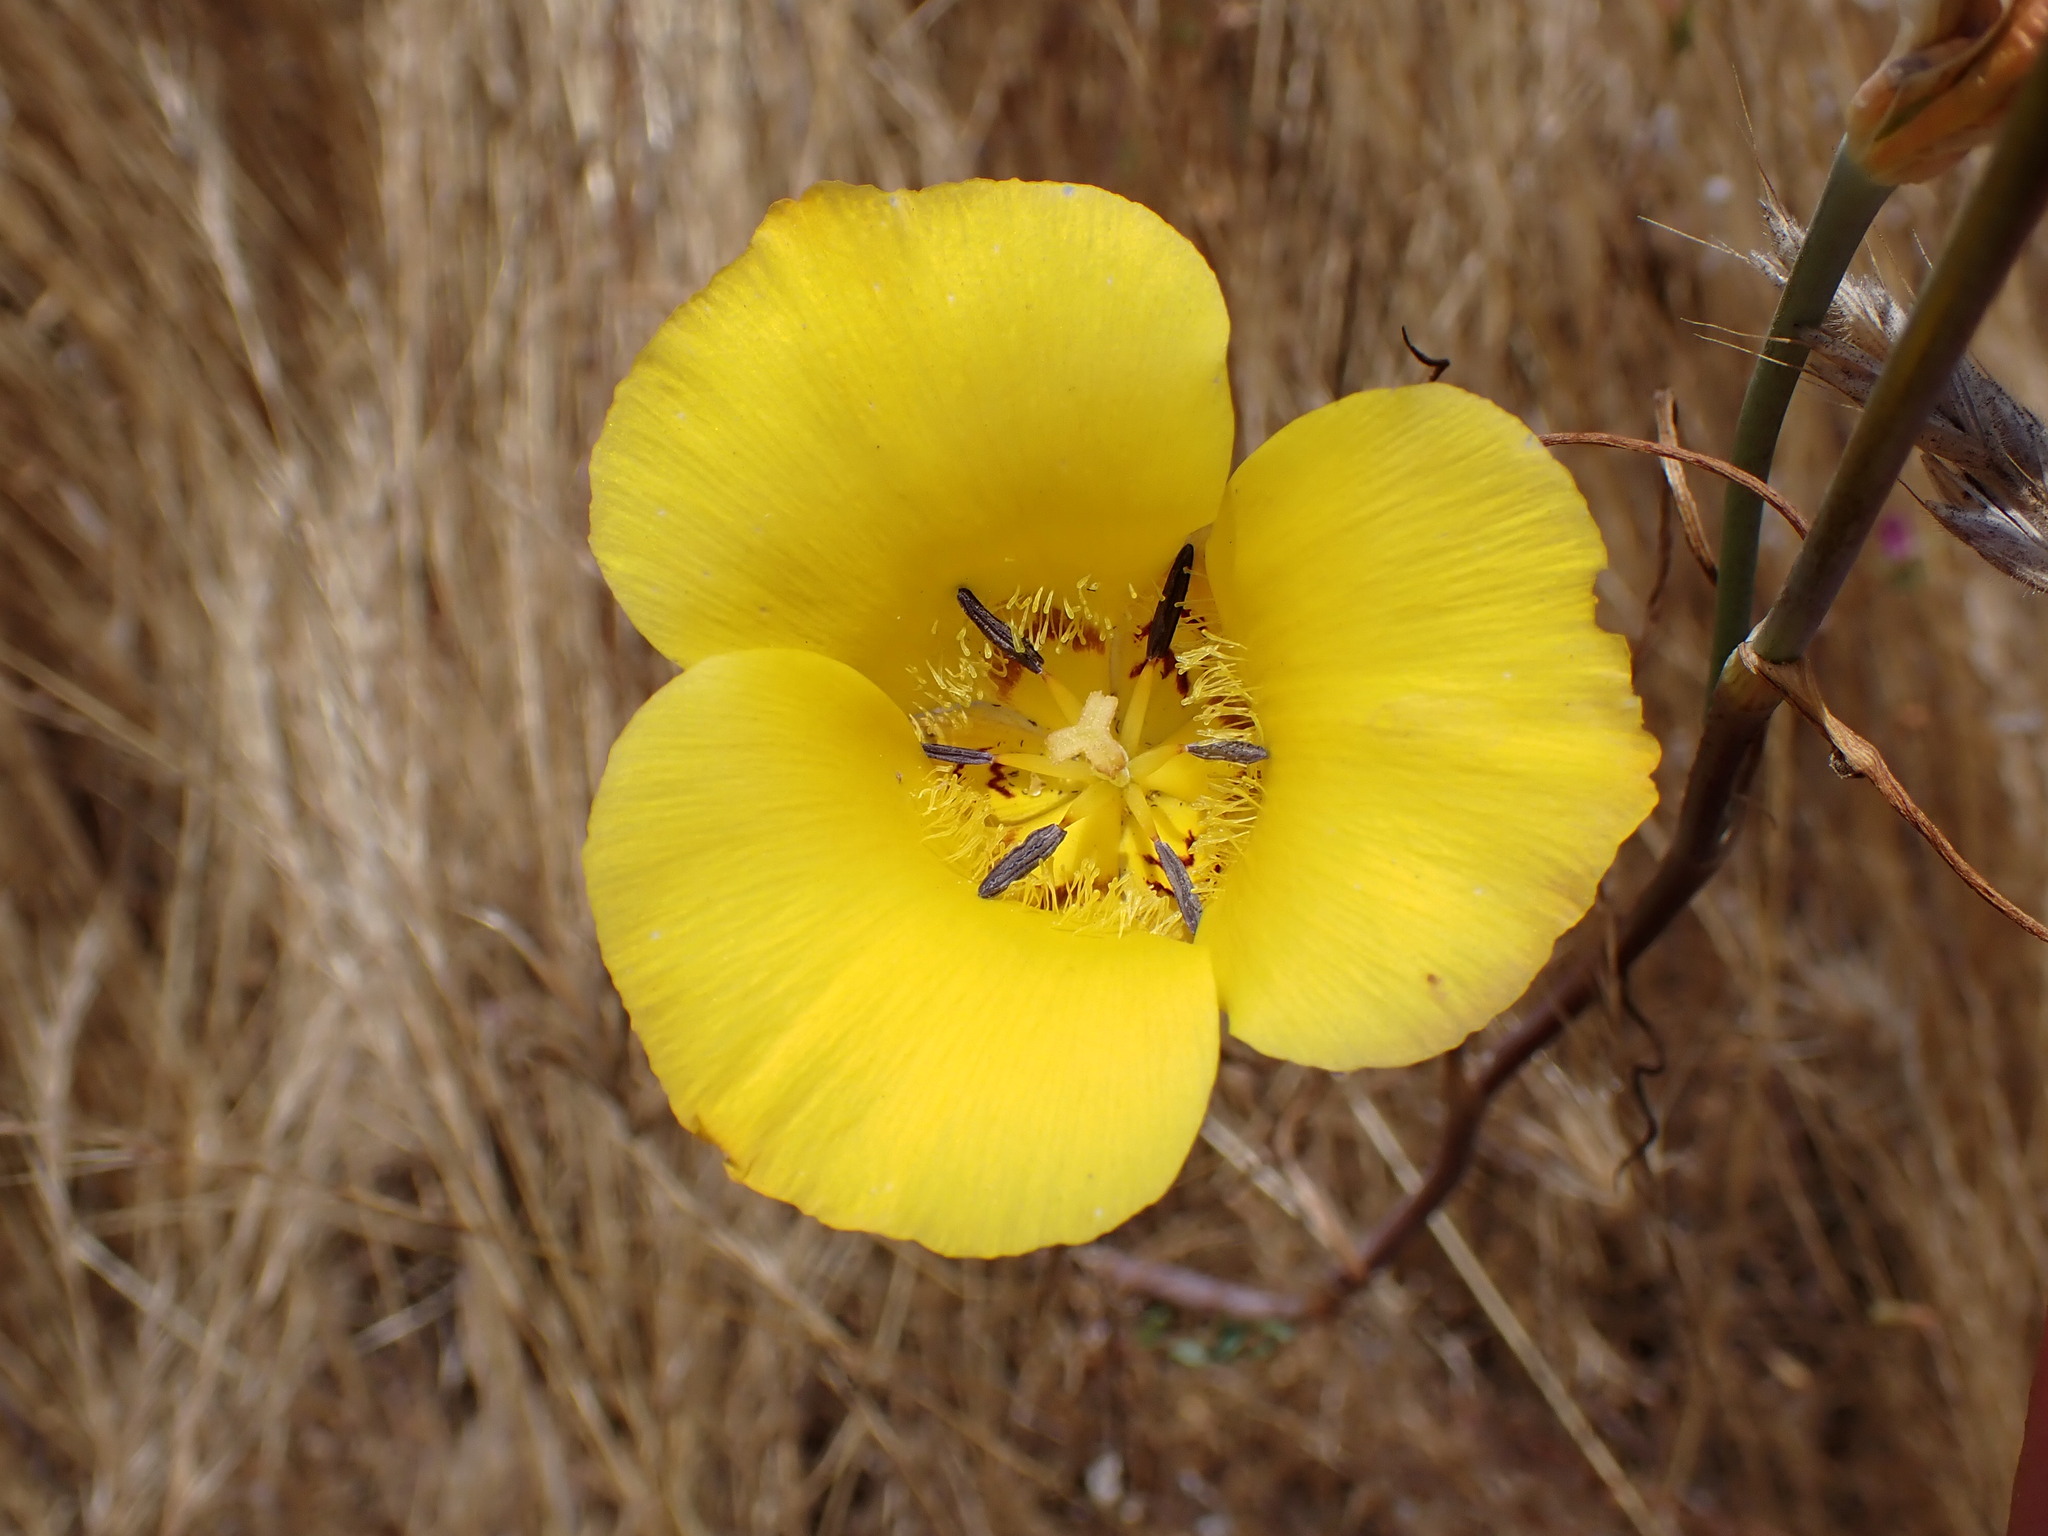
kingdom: Plantae
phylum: Tracheophyta
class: Liliopsida
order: Liliales
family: Liliaceae
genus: Calochortus
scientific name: Calochortus clavatus
